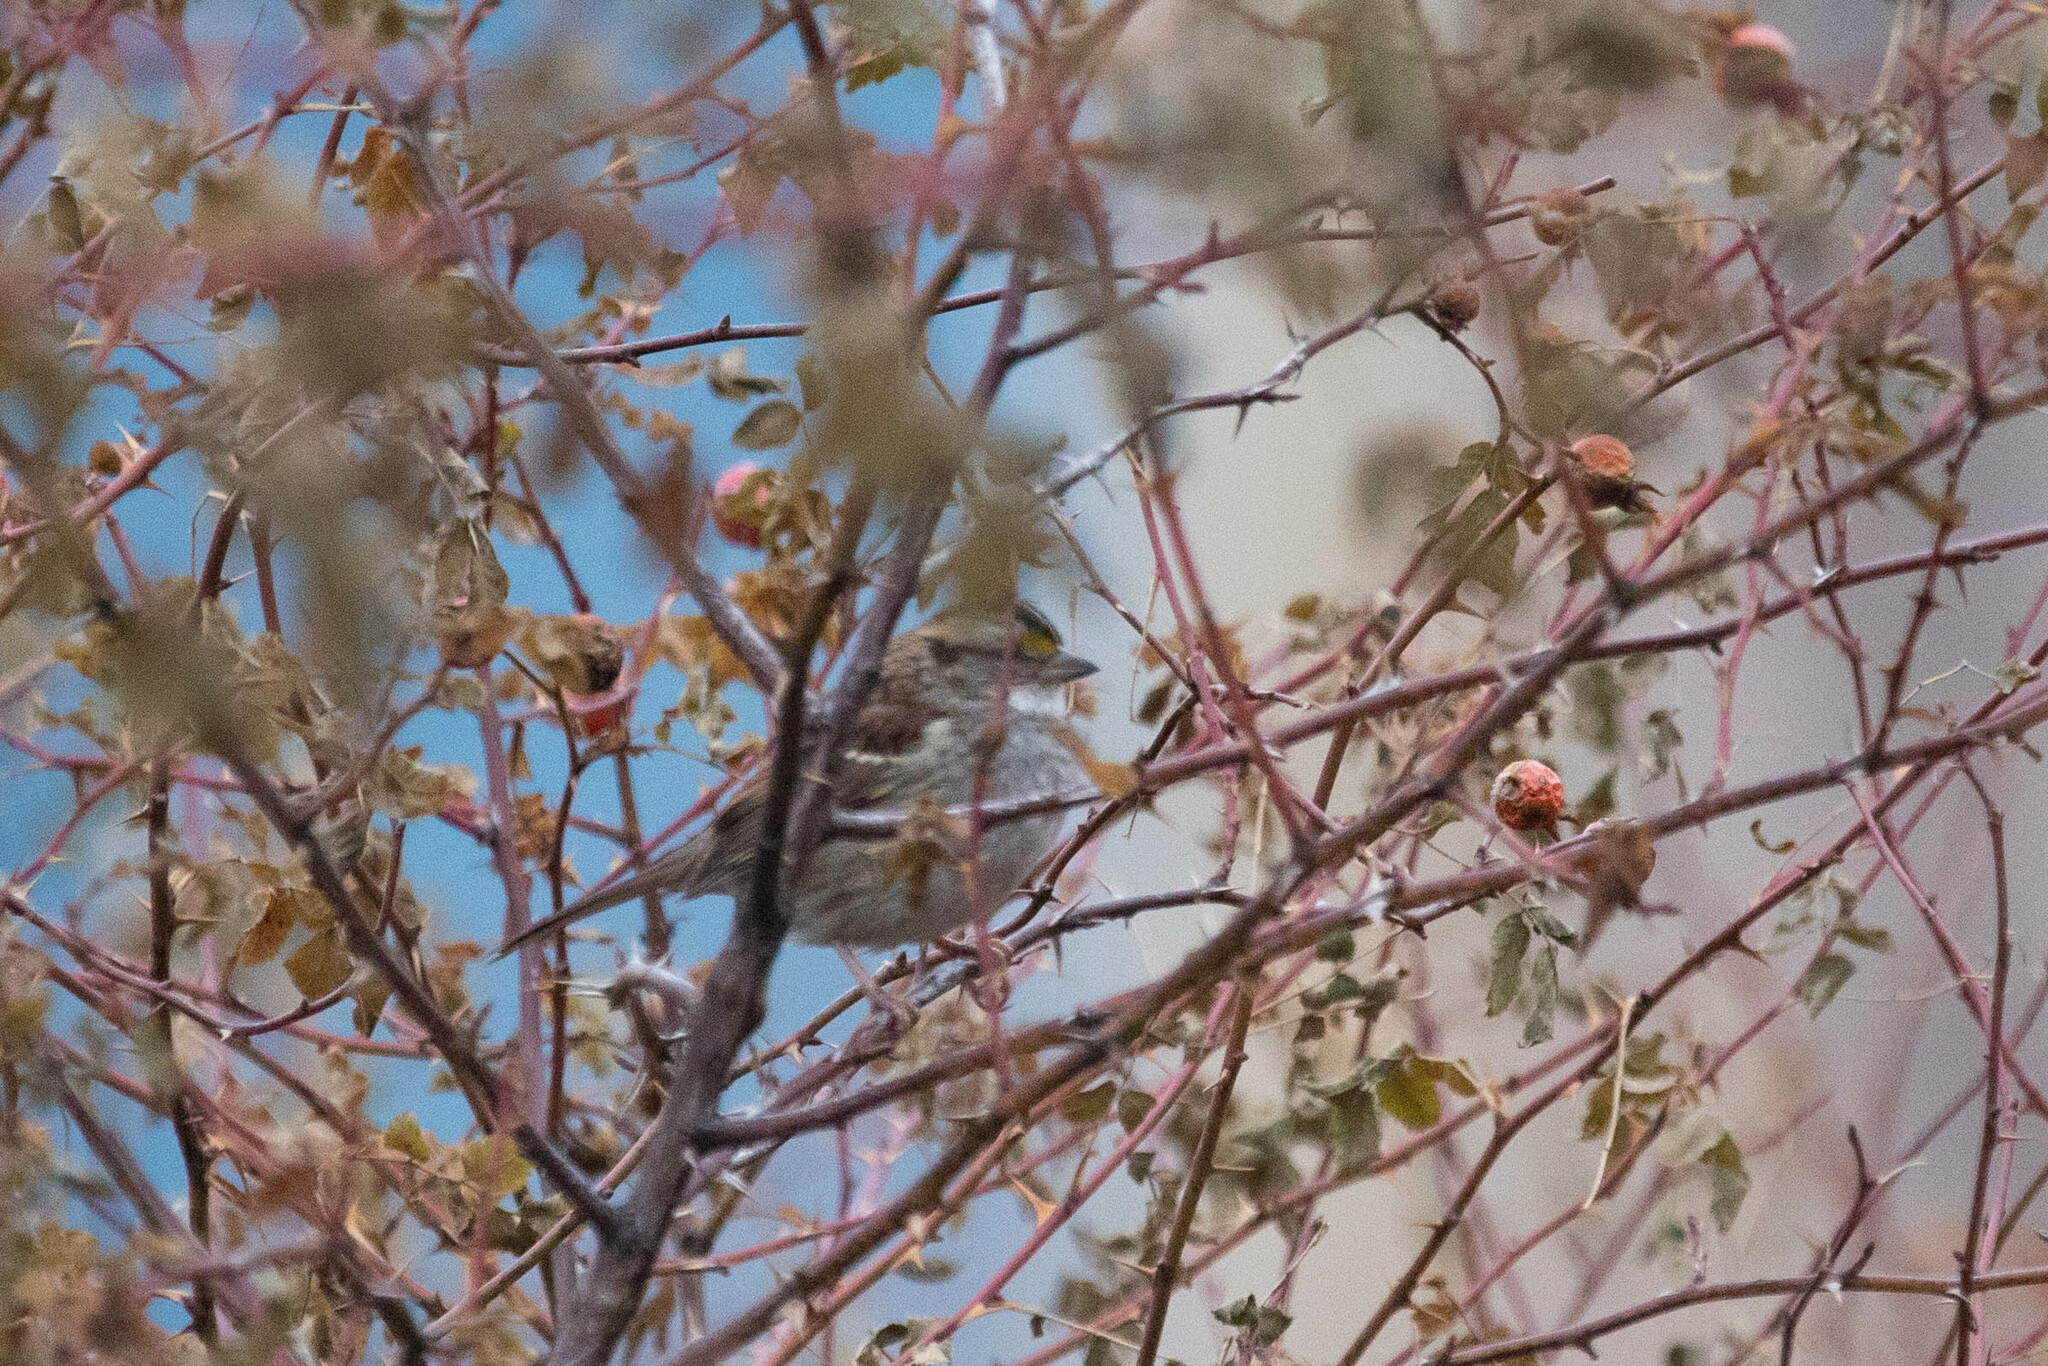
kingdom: Animalia
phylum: Chordata
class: Aves
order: Passeriformes
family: Passerellidae
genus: Zonotrichia
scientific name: Zonotrichia albicollis
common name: White-throated sparrow
